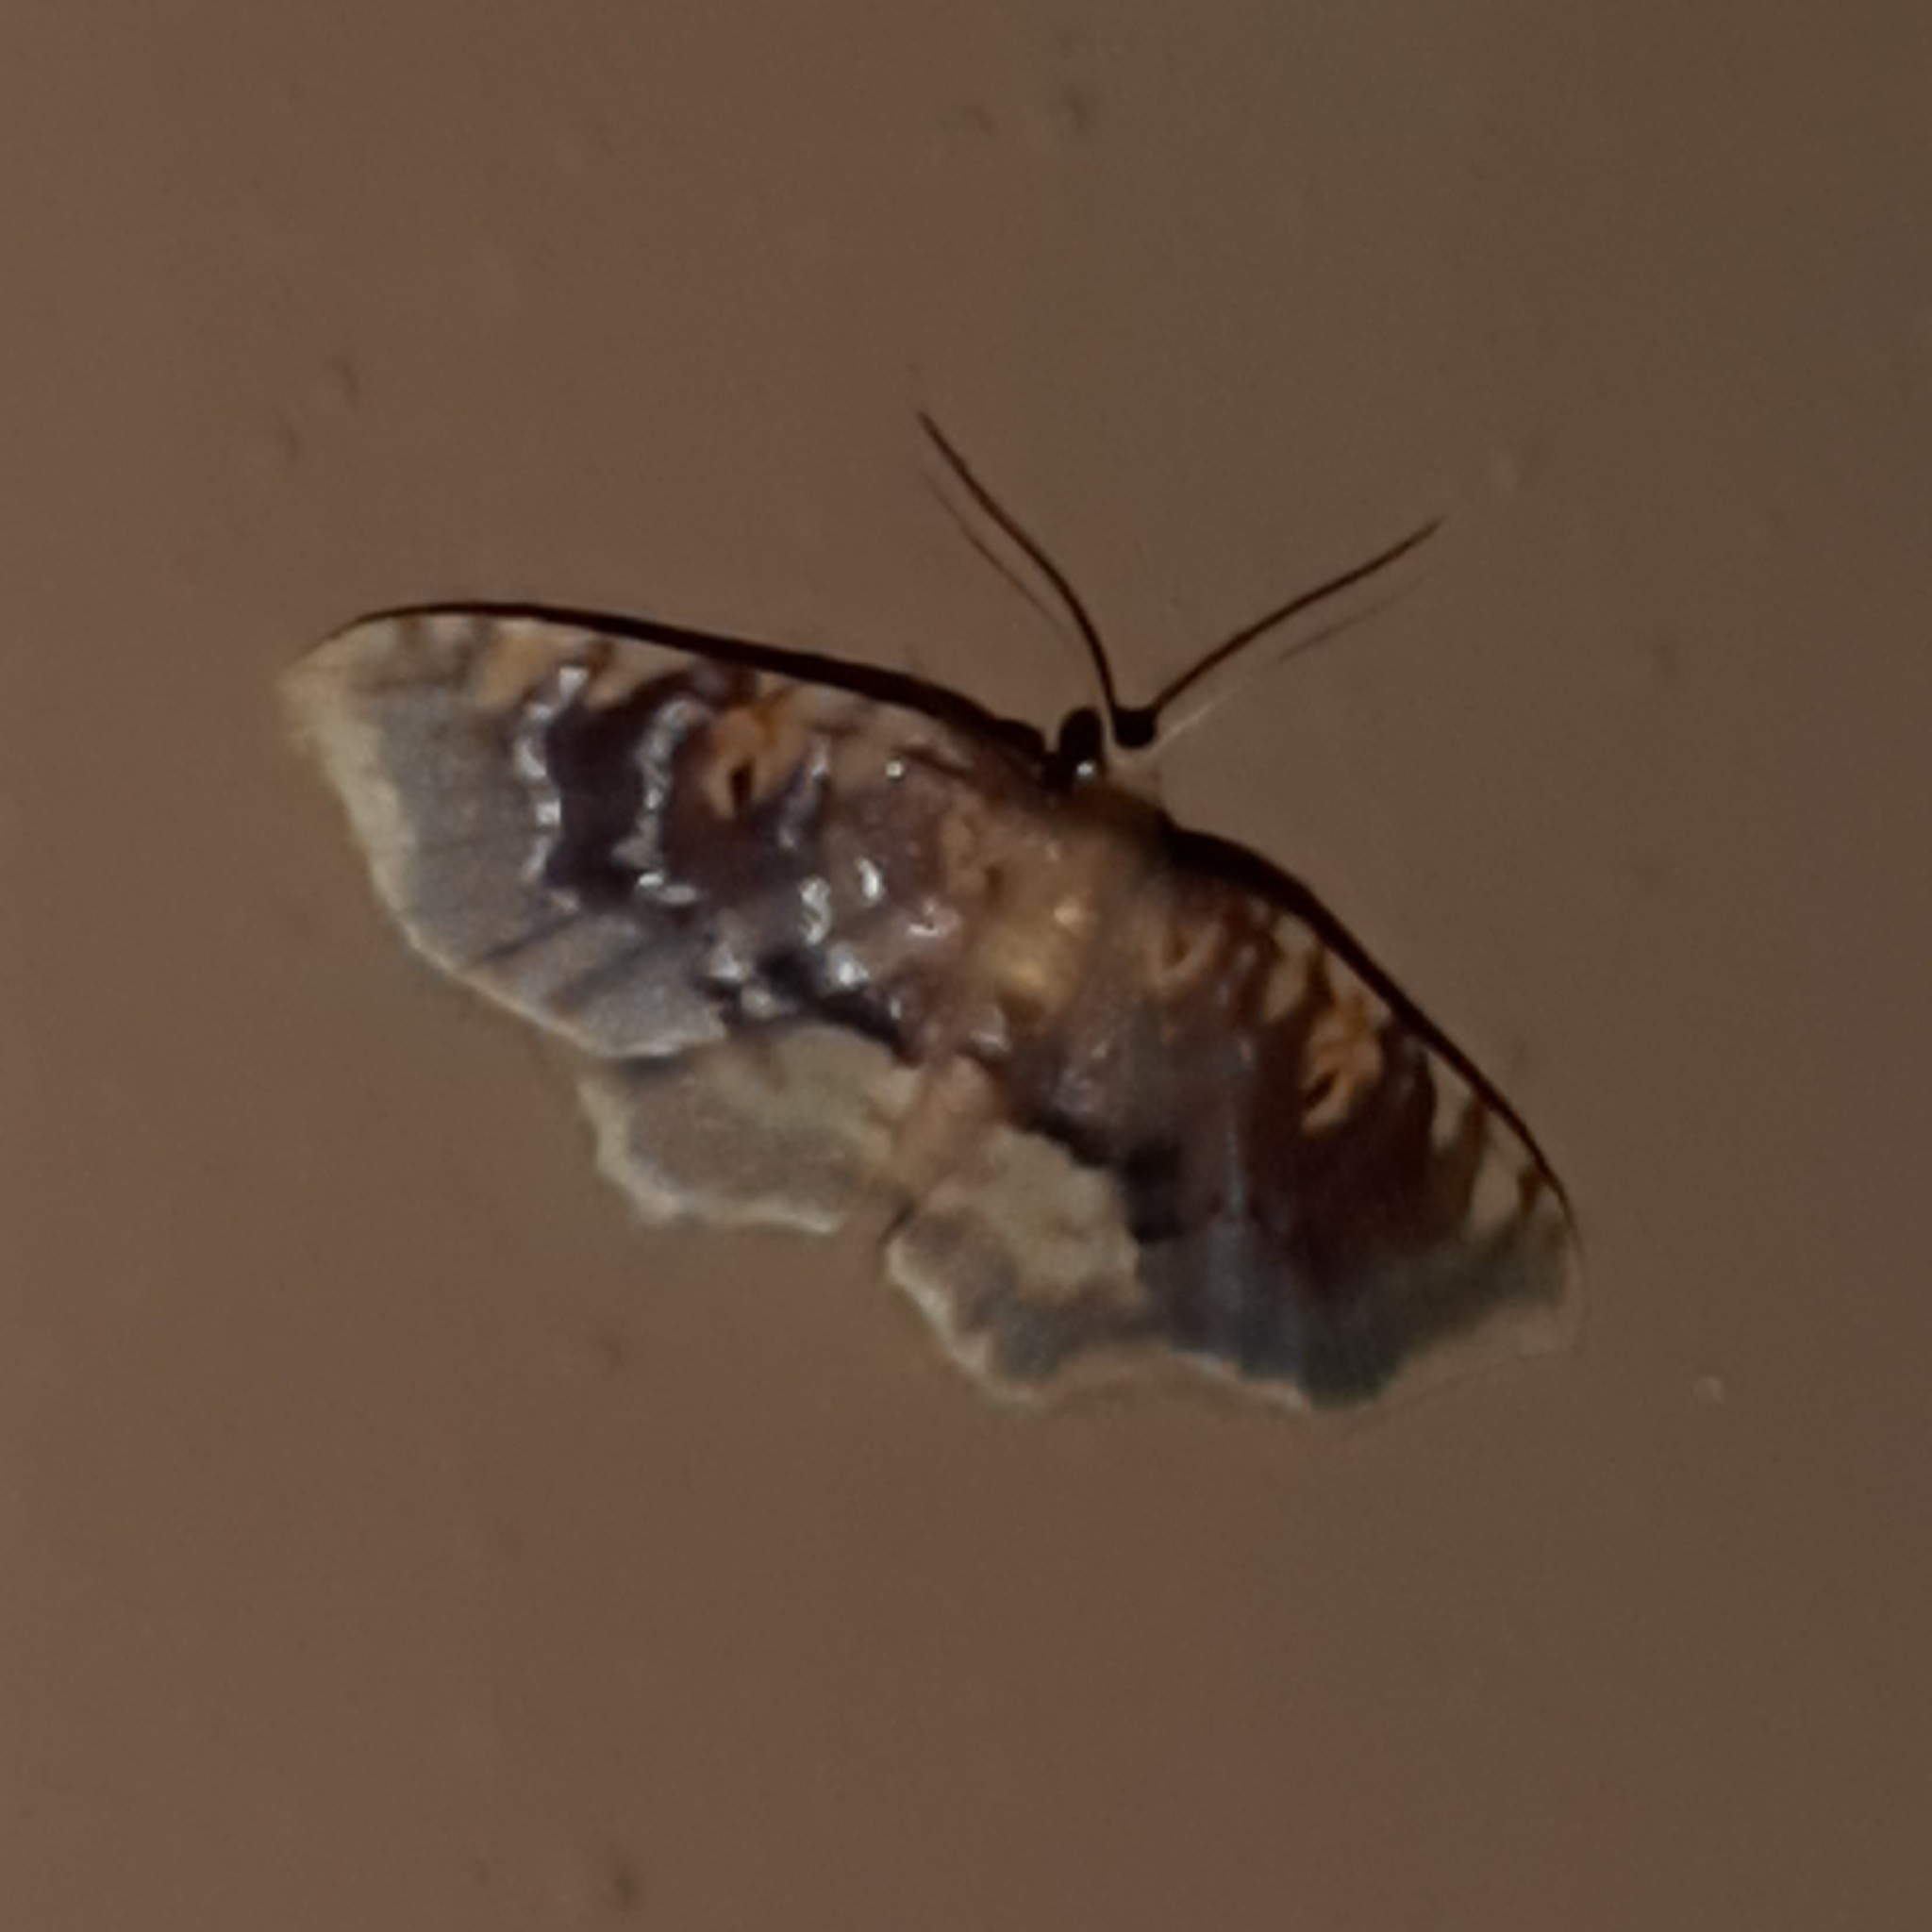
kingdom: Animalia
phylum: Arthropoda
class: Insecta
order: Lepidoptera
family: Geometridae
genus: Eois
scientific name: Eois nundina
